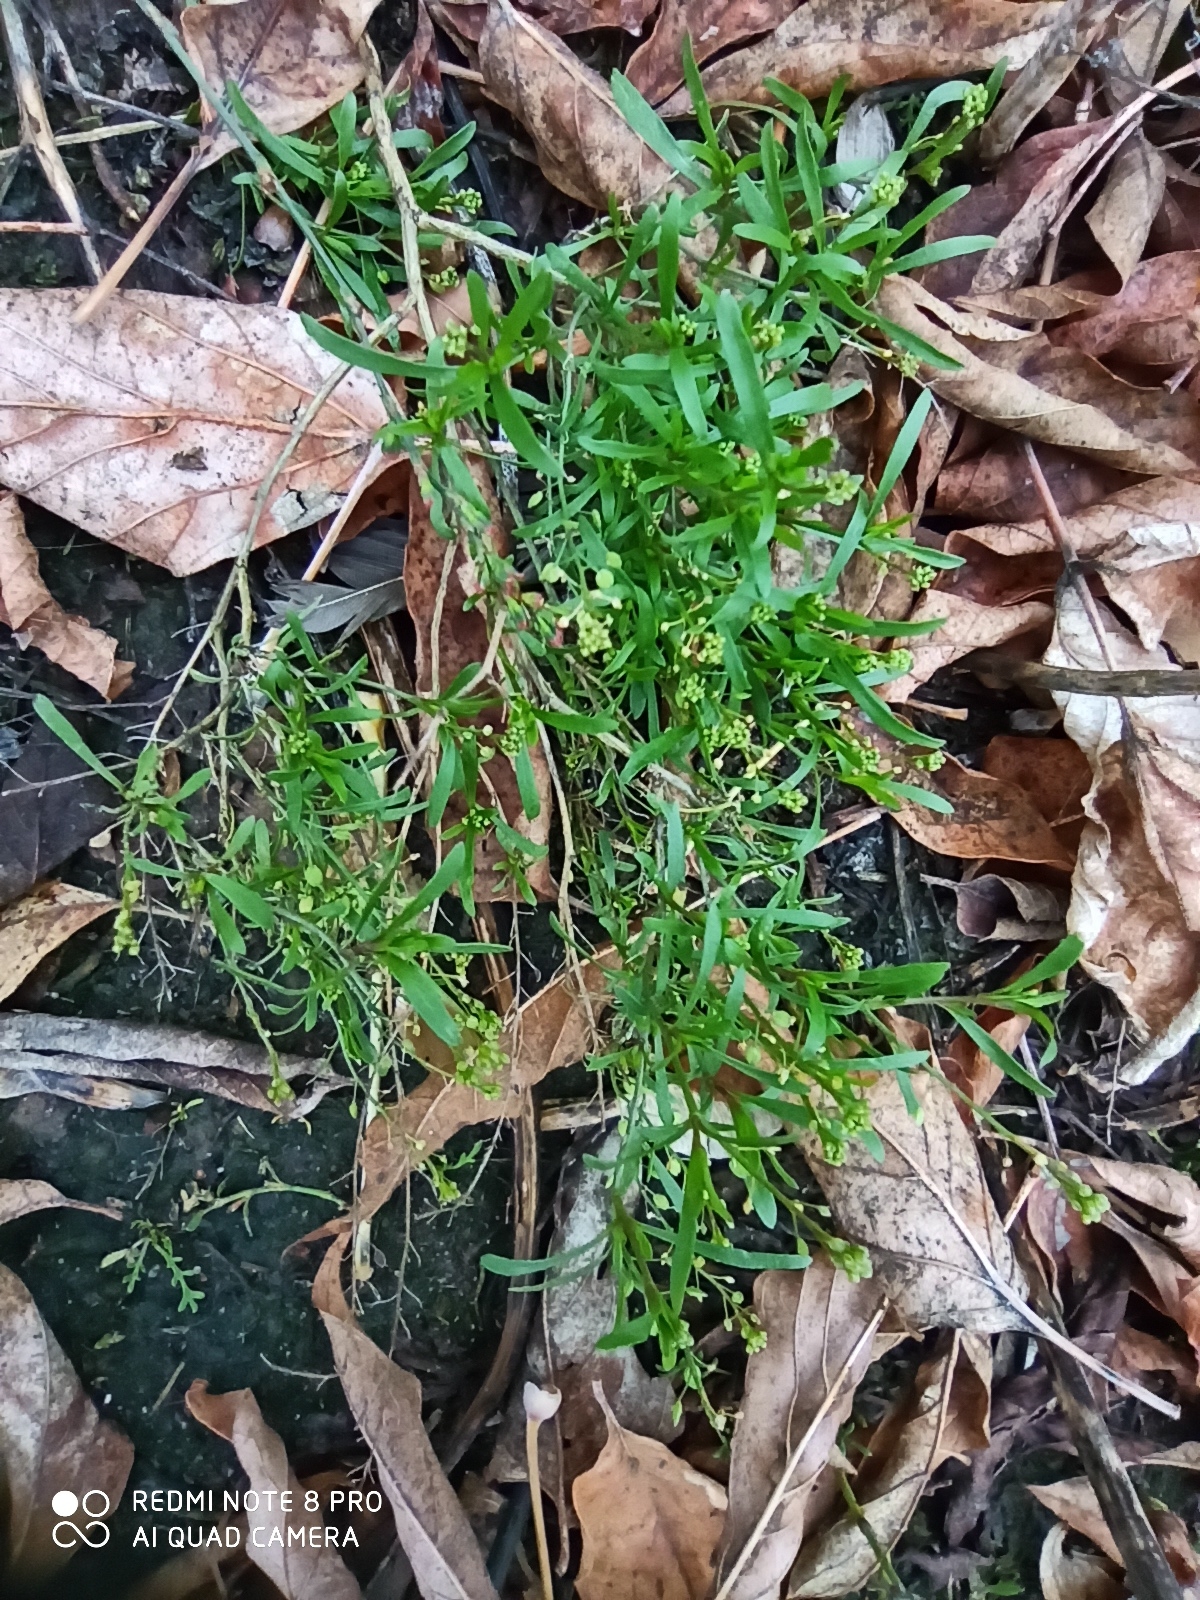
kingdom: Plantae
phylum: Tracheophyta
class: Magnoliopsida
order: Brassicales
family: Brassicaceae
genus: Lepidium
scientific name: Lepidium ruderale
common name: Narrow-leaved pepperwort
